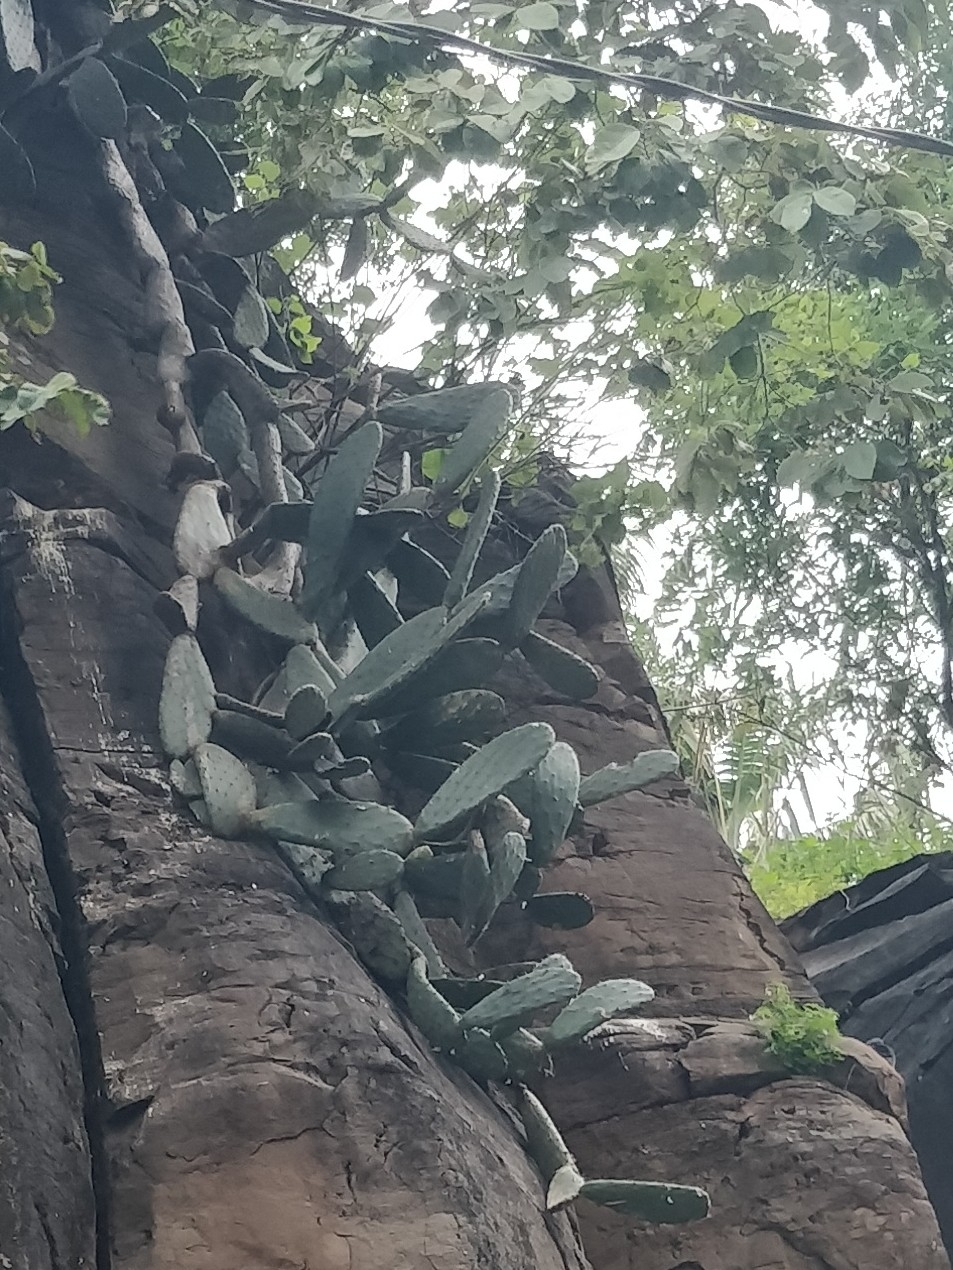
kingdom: Plantae
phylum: Tracheophyta
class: Magnoliopsida
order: Caryophyllales
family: Cactaceae
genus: Opuntia
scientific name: Opuntia ficus-indica
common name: Barbary fig
